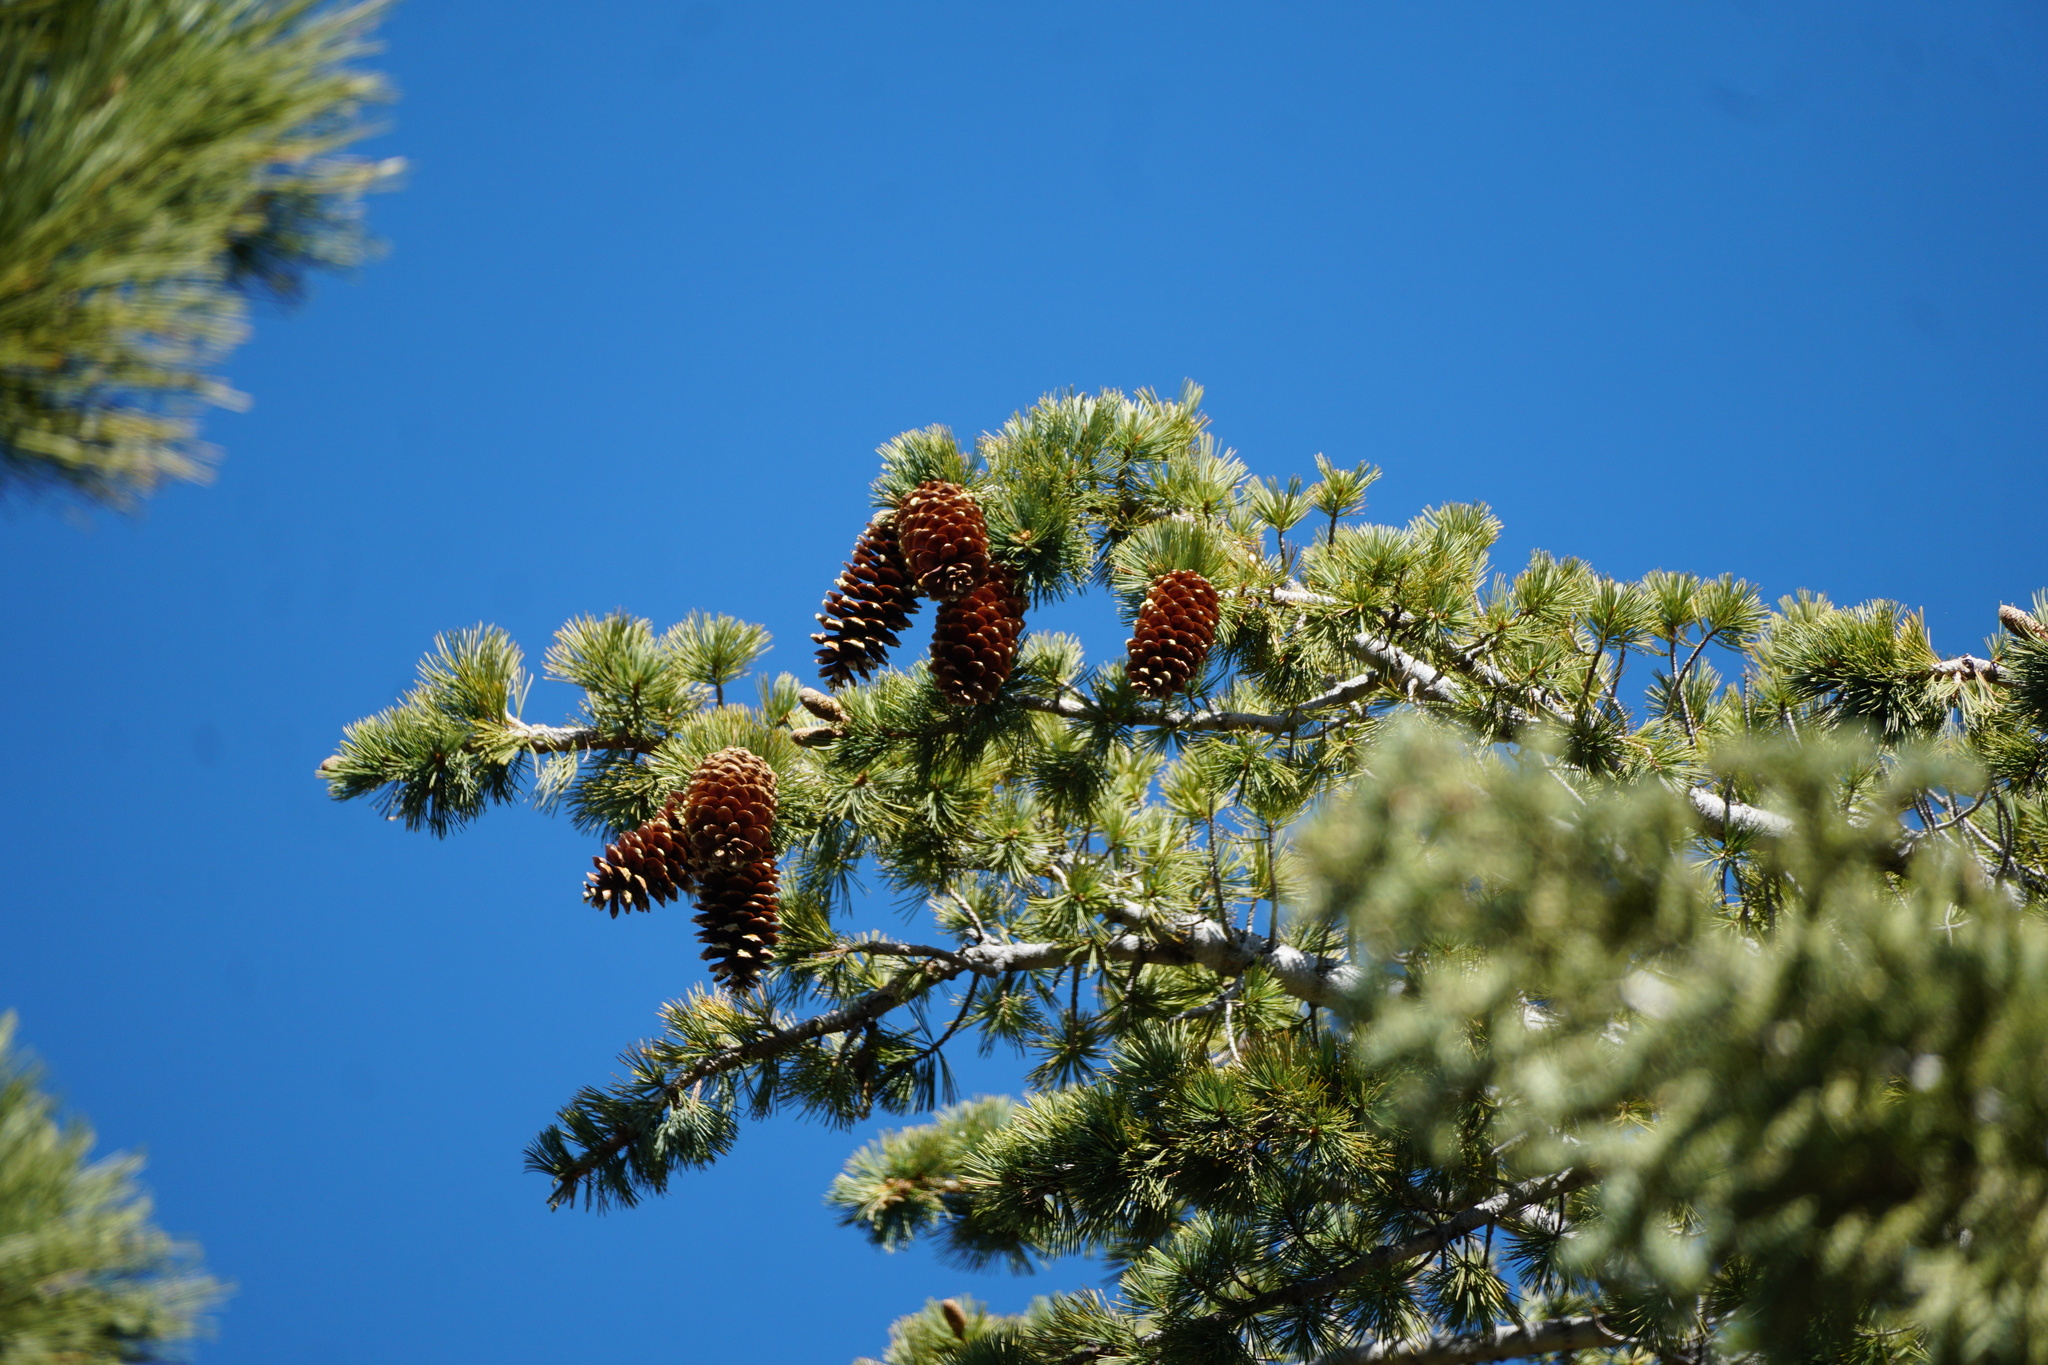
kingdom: Plantae
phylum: Tracheophyta
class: Pinopsida
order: Pinales
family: Pinaceae
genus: Pinus
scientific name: Pinus lambertiana
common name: Sugar pine
